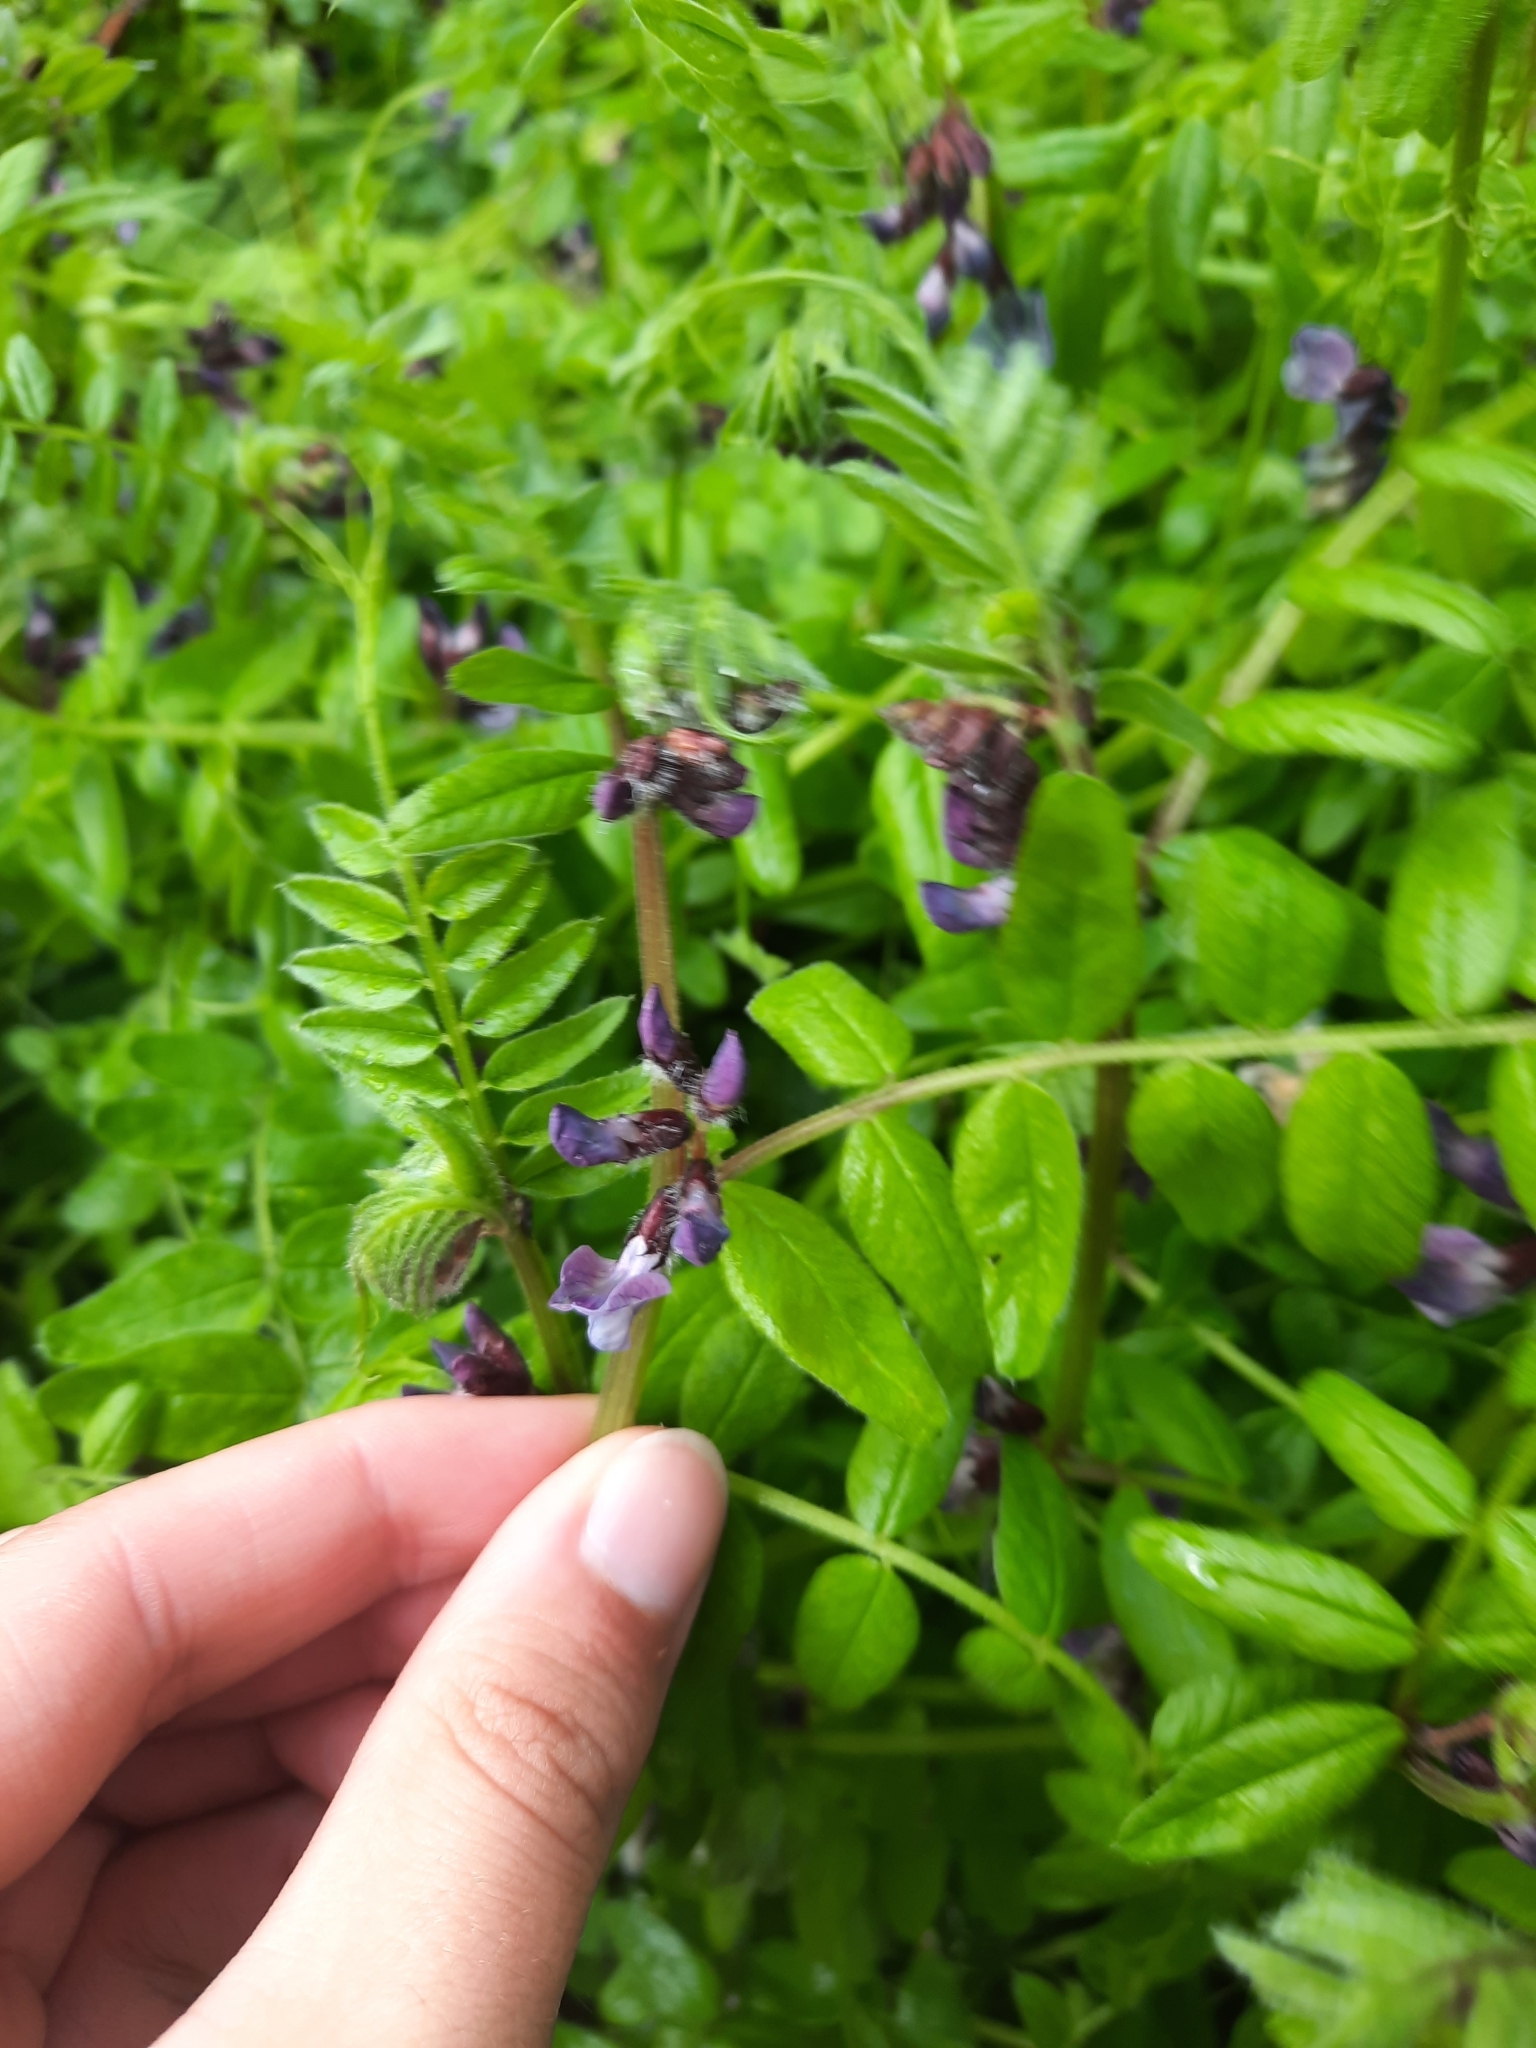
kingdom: Plantae
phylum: Tracheophyta
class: Magnoliopsida
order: Fabales
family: Fabaceae
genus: Vicia
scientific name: Vicia sepium
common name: Bush vetch
